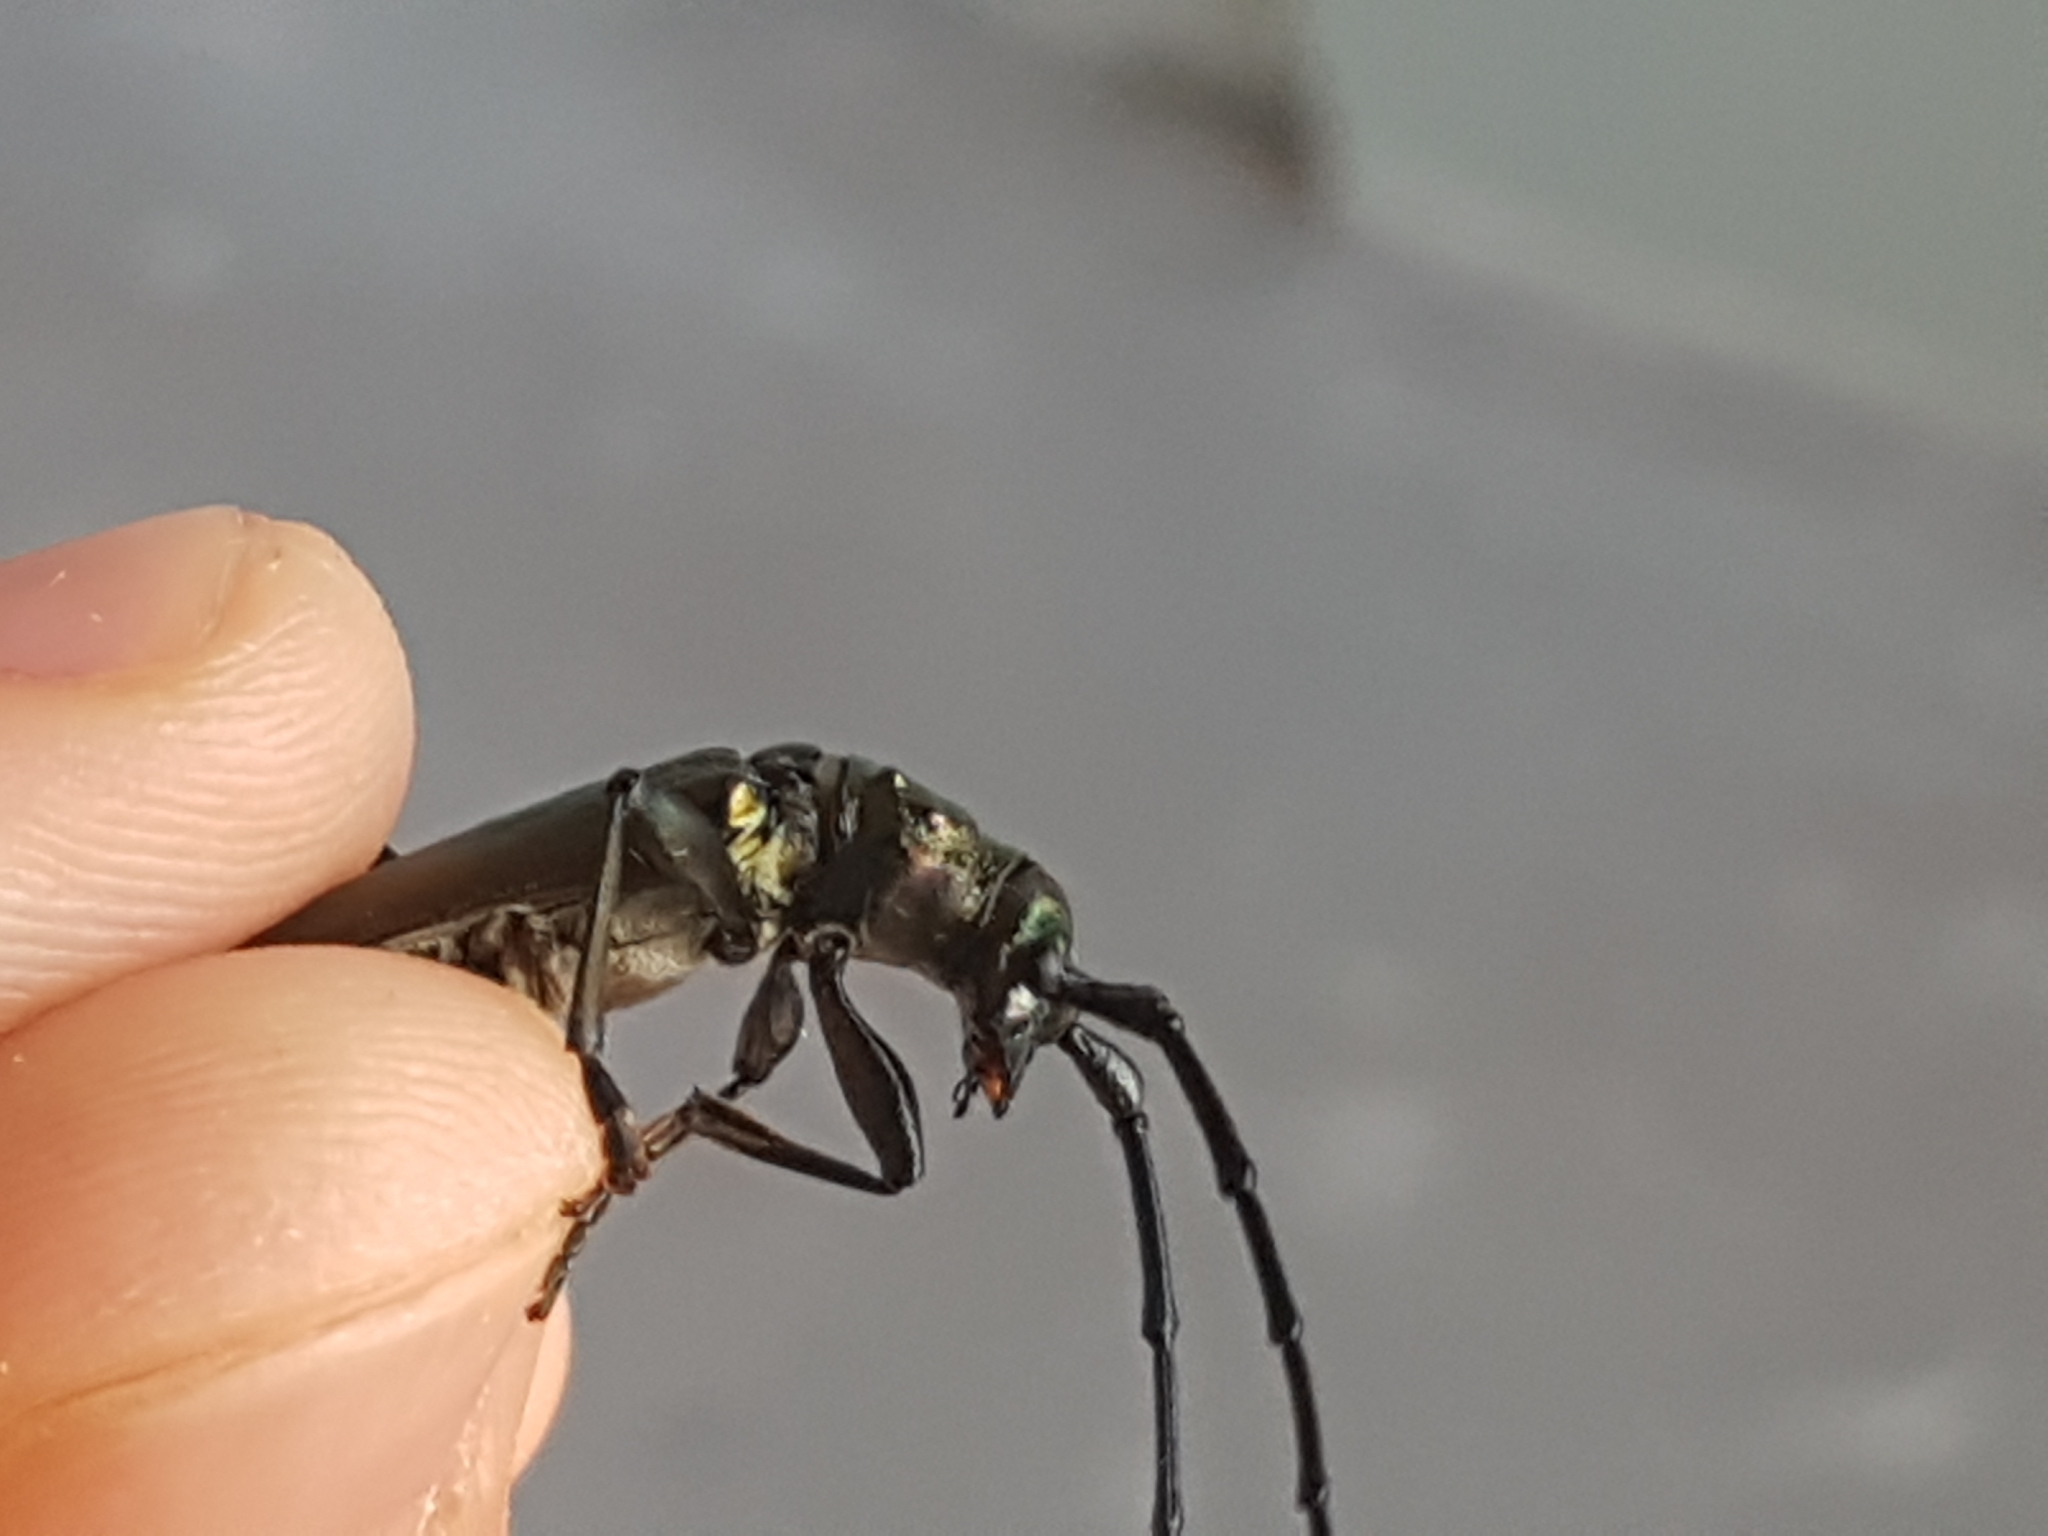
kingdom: Animalia
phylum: Arthropoda
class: Insecta
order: Coleoptera
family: Cerambycidae
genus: Aromia
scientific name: Aromia moschata
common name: Musk beetle
